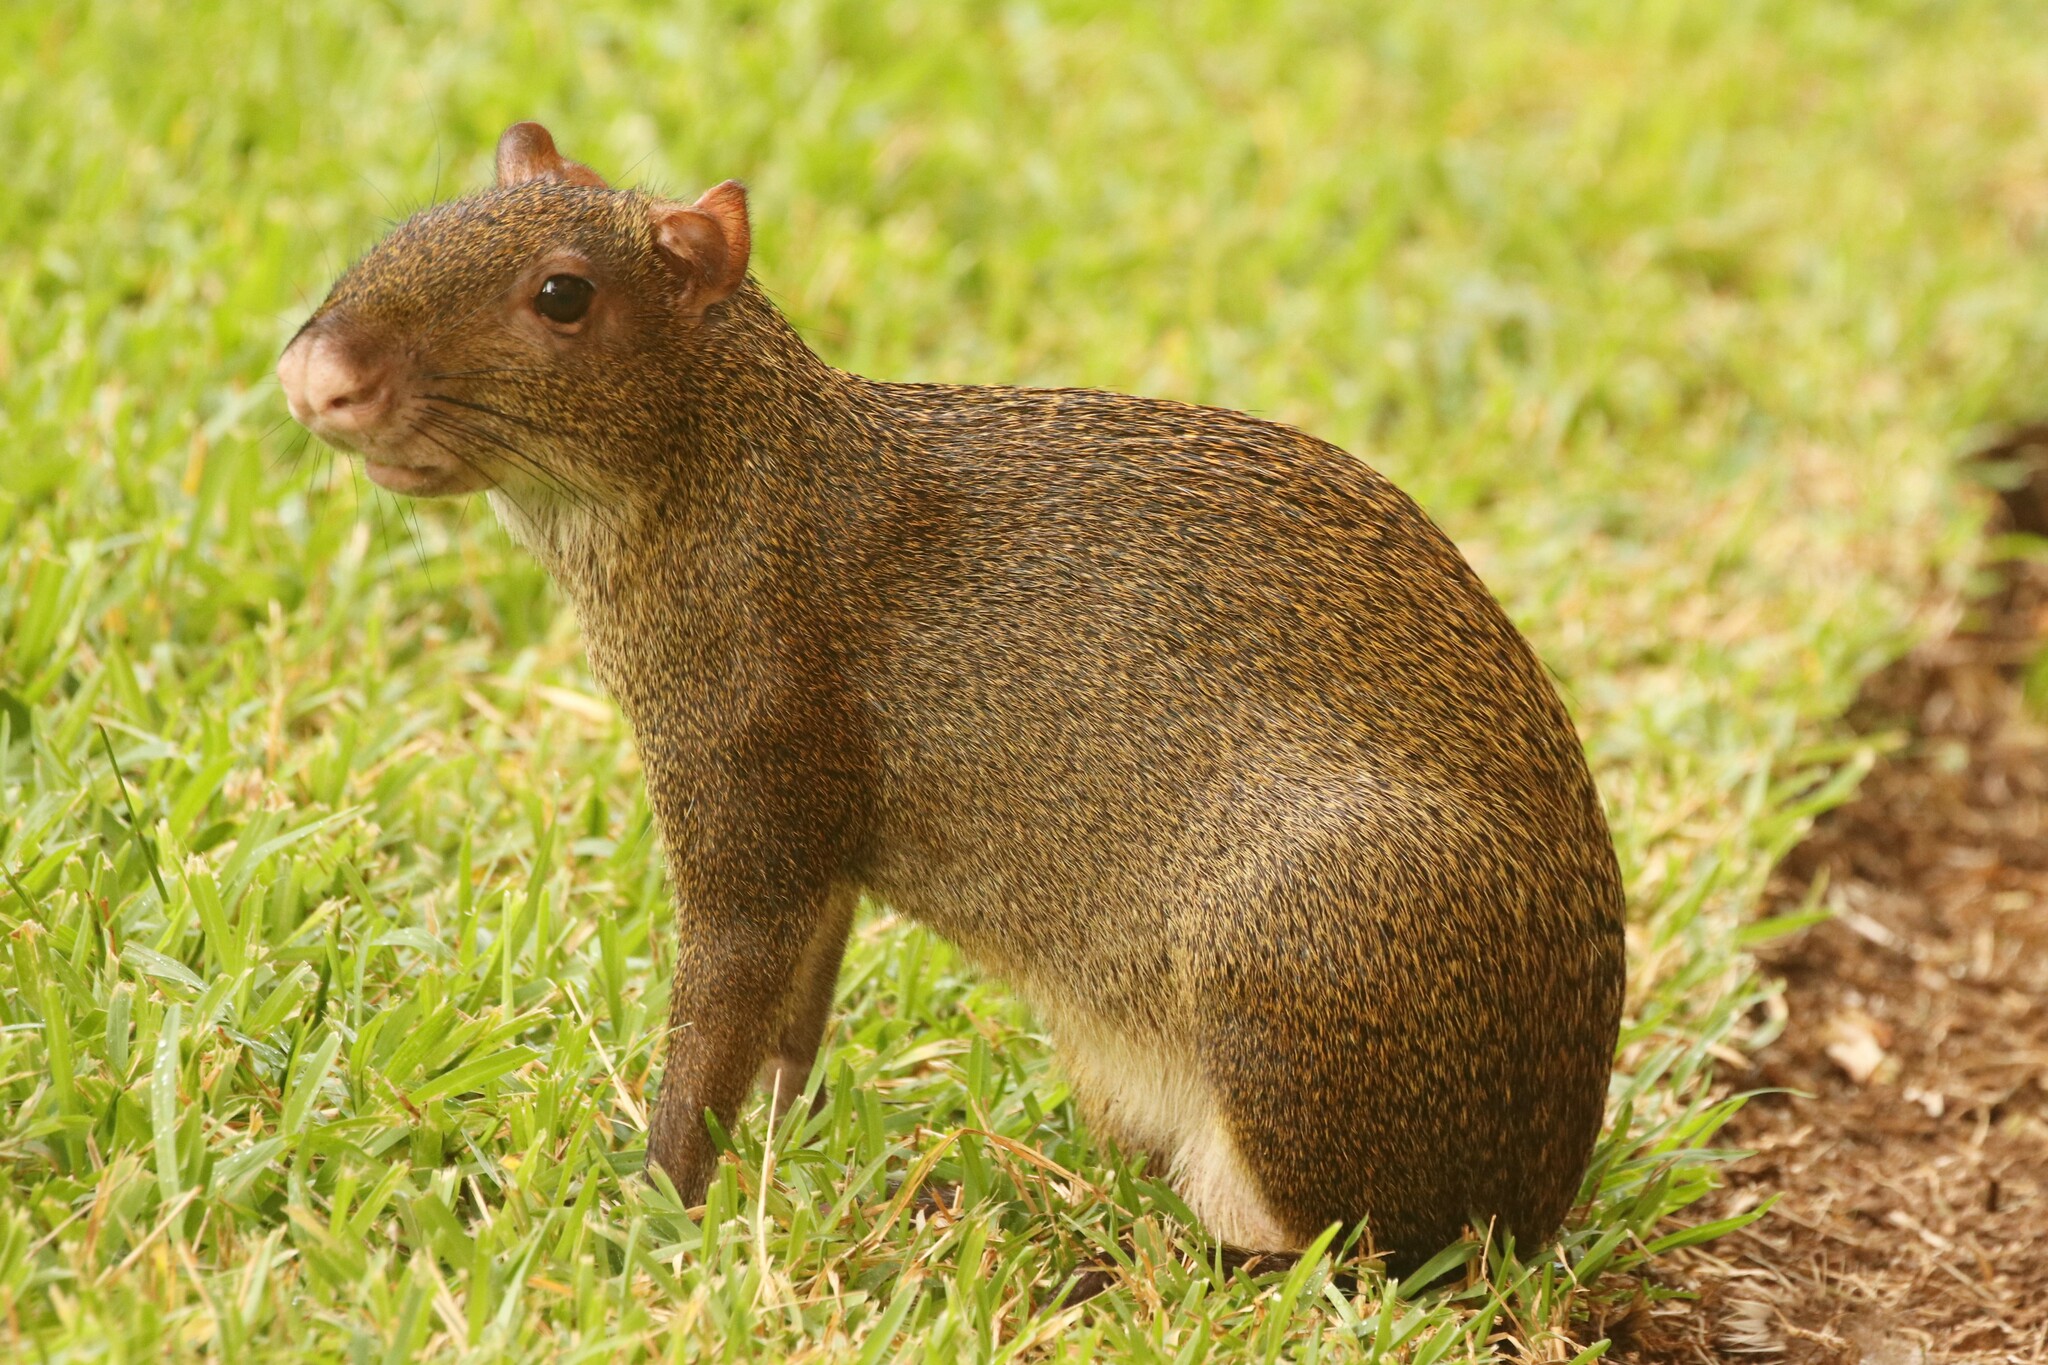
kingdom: Animalia
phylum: Chordata
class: Mammalia
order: Rodentia
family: Dasyproctidae
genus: Dasyprocta
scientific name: Dasyprocta punctata
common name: Central american agouti
